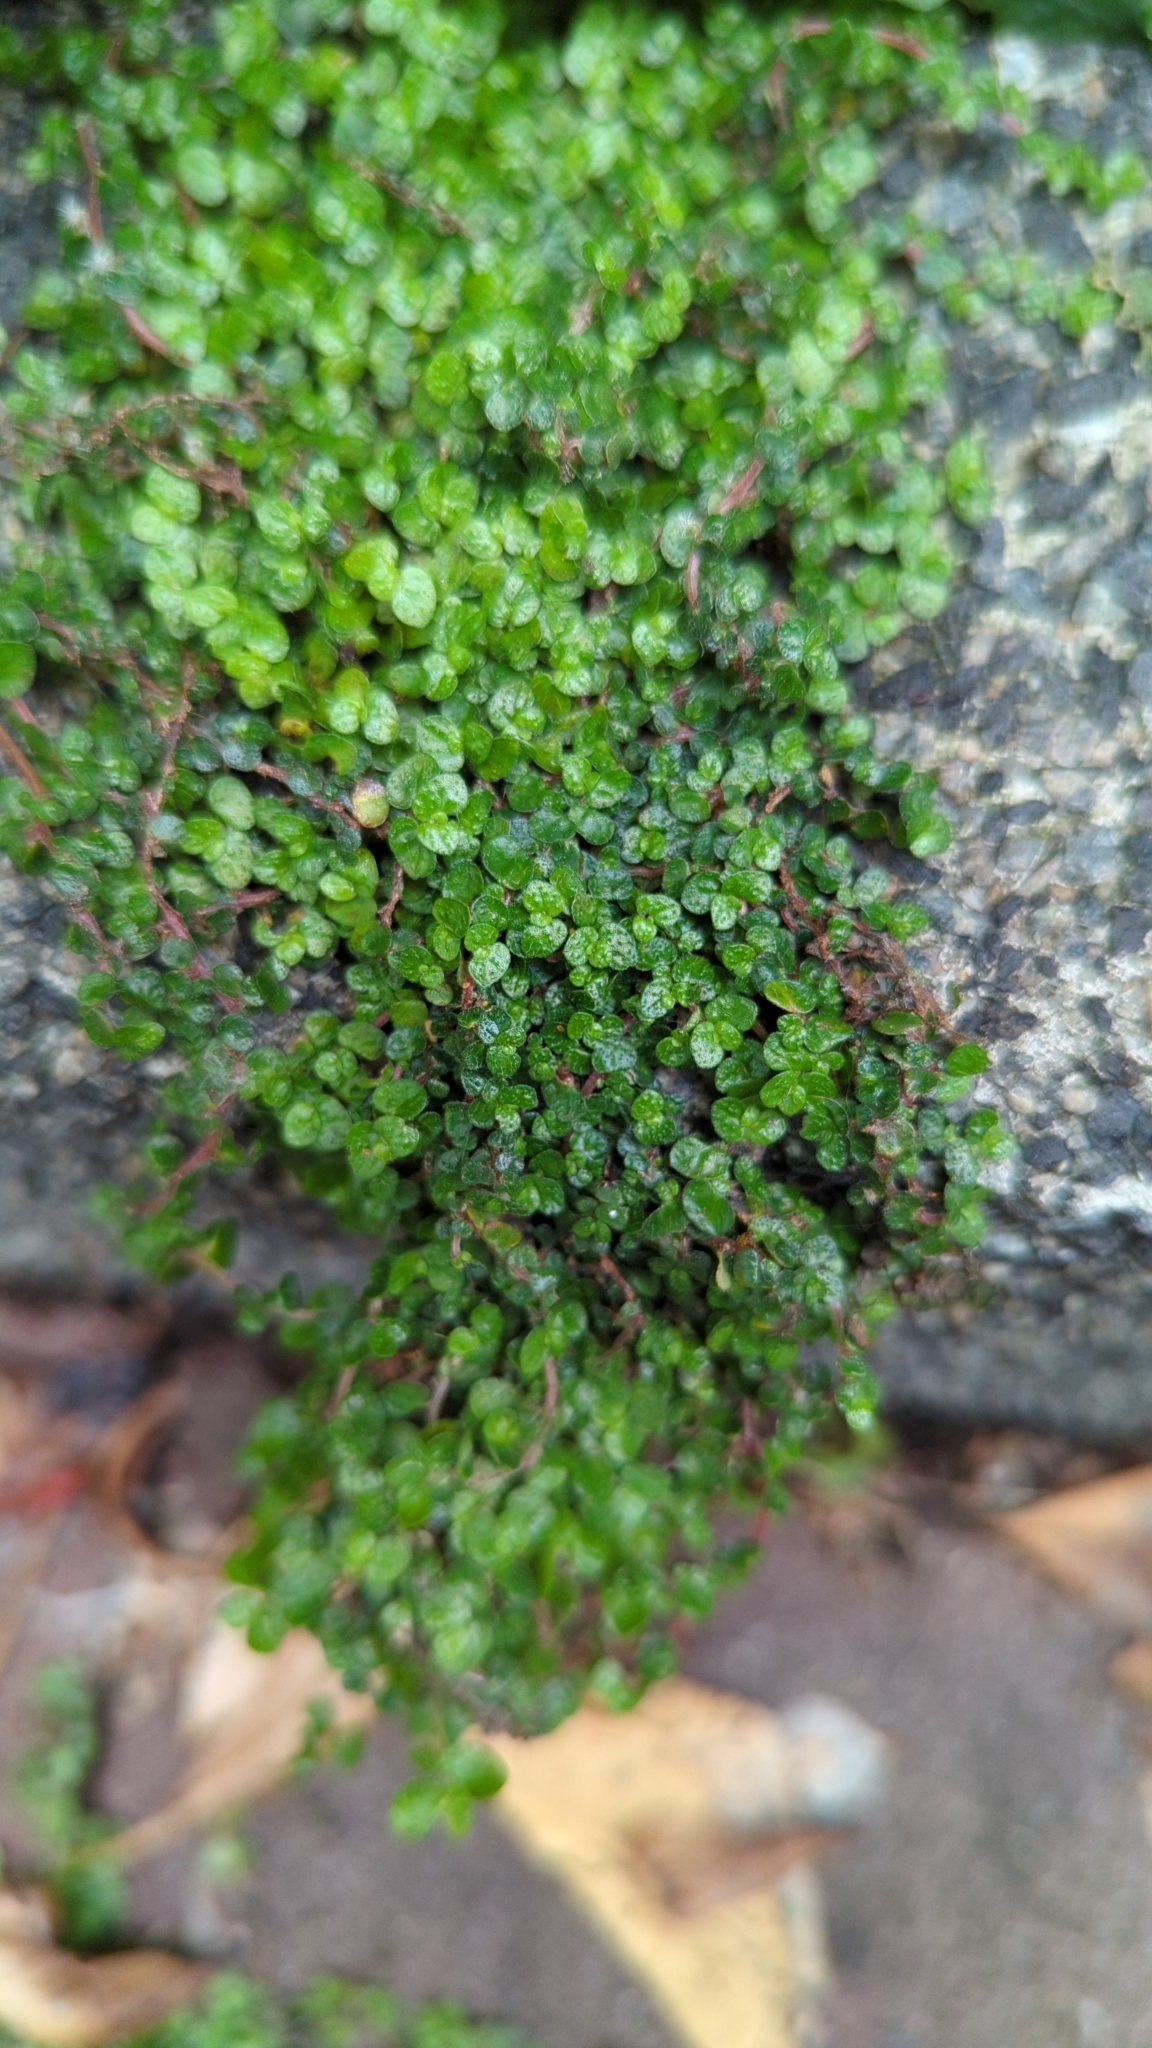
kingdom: Plantae
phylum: Tracheophyta
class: Magnoliopsida
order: Rosales
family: Urticaceae
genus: Soleirolia
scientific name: Soleirolia soleirolii
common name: Mind-your-own-business
